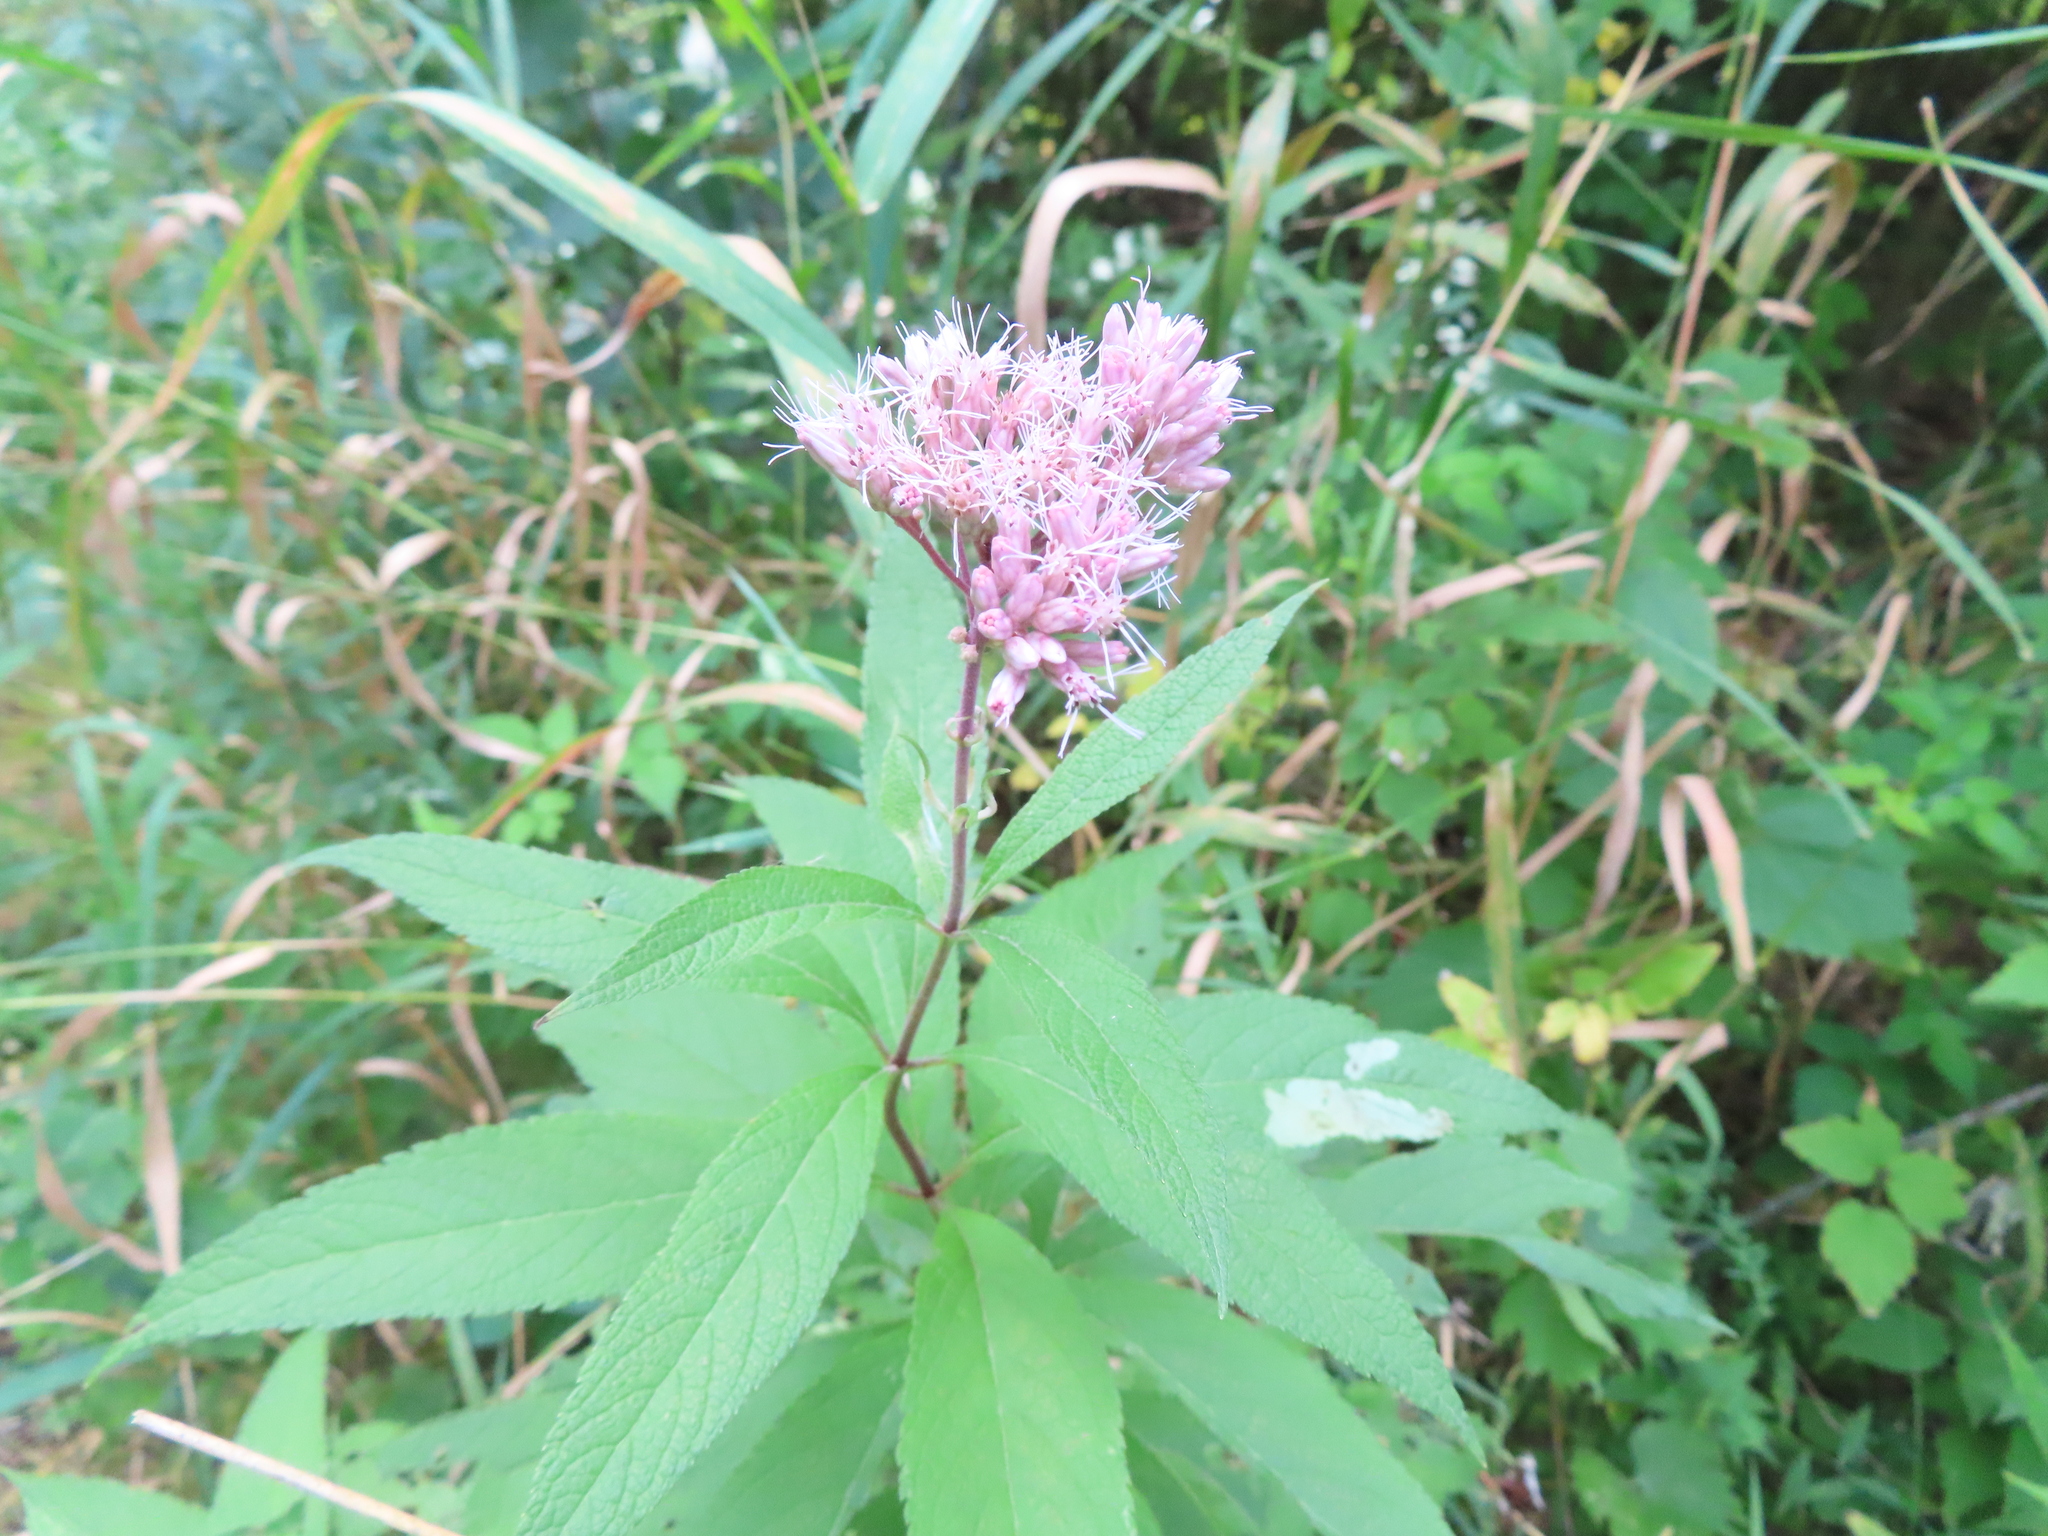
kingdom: Plantae
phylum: Tracheophyta
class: Magnoliopsida
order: Asterales
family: Asteraceae
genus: Eutrochium
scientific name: Eutrochium maculatum
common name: Spotted joe pye weed
